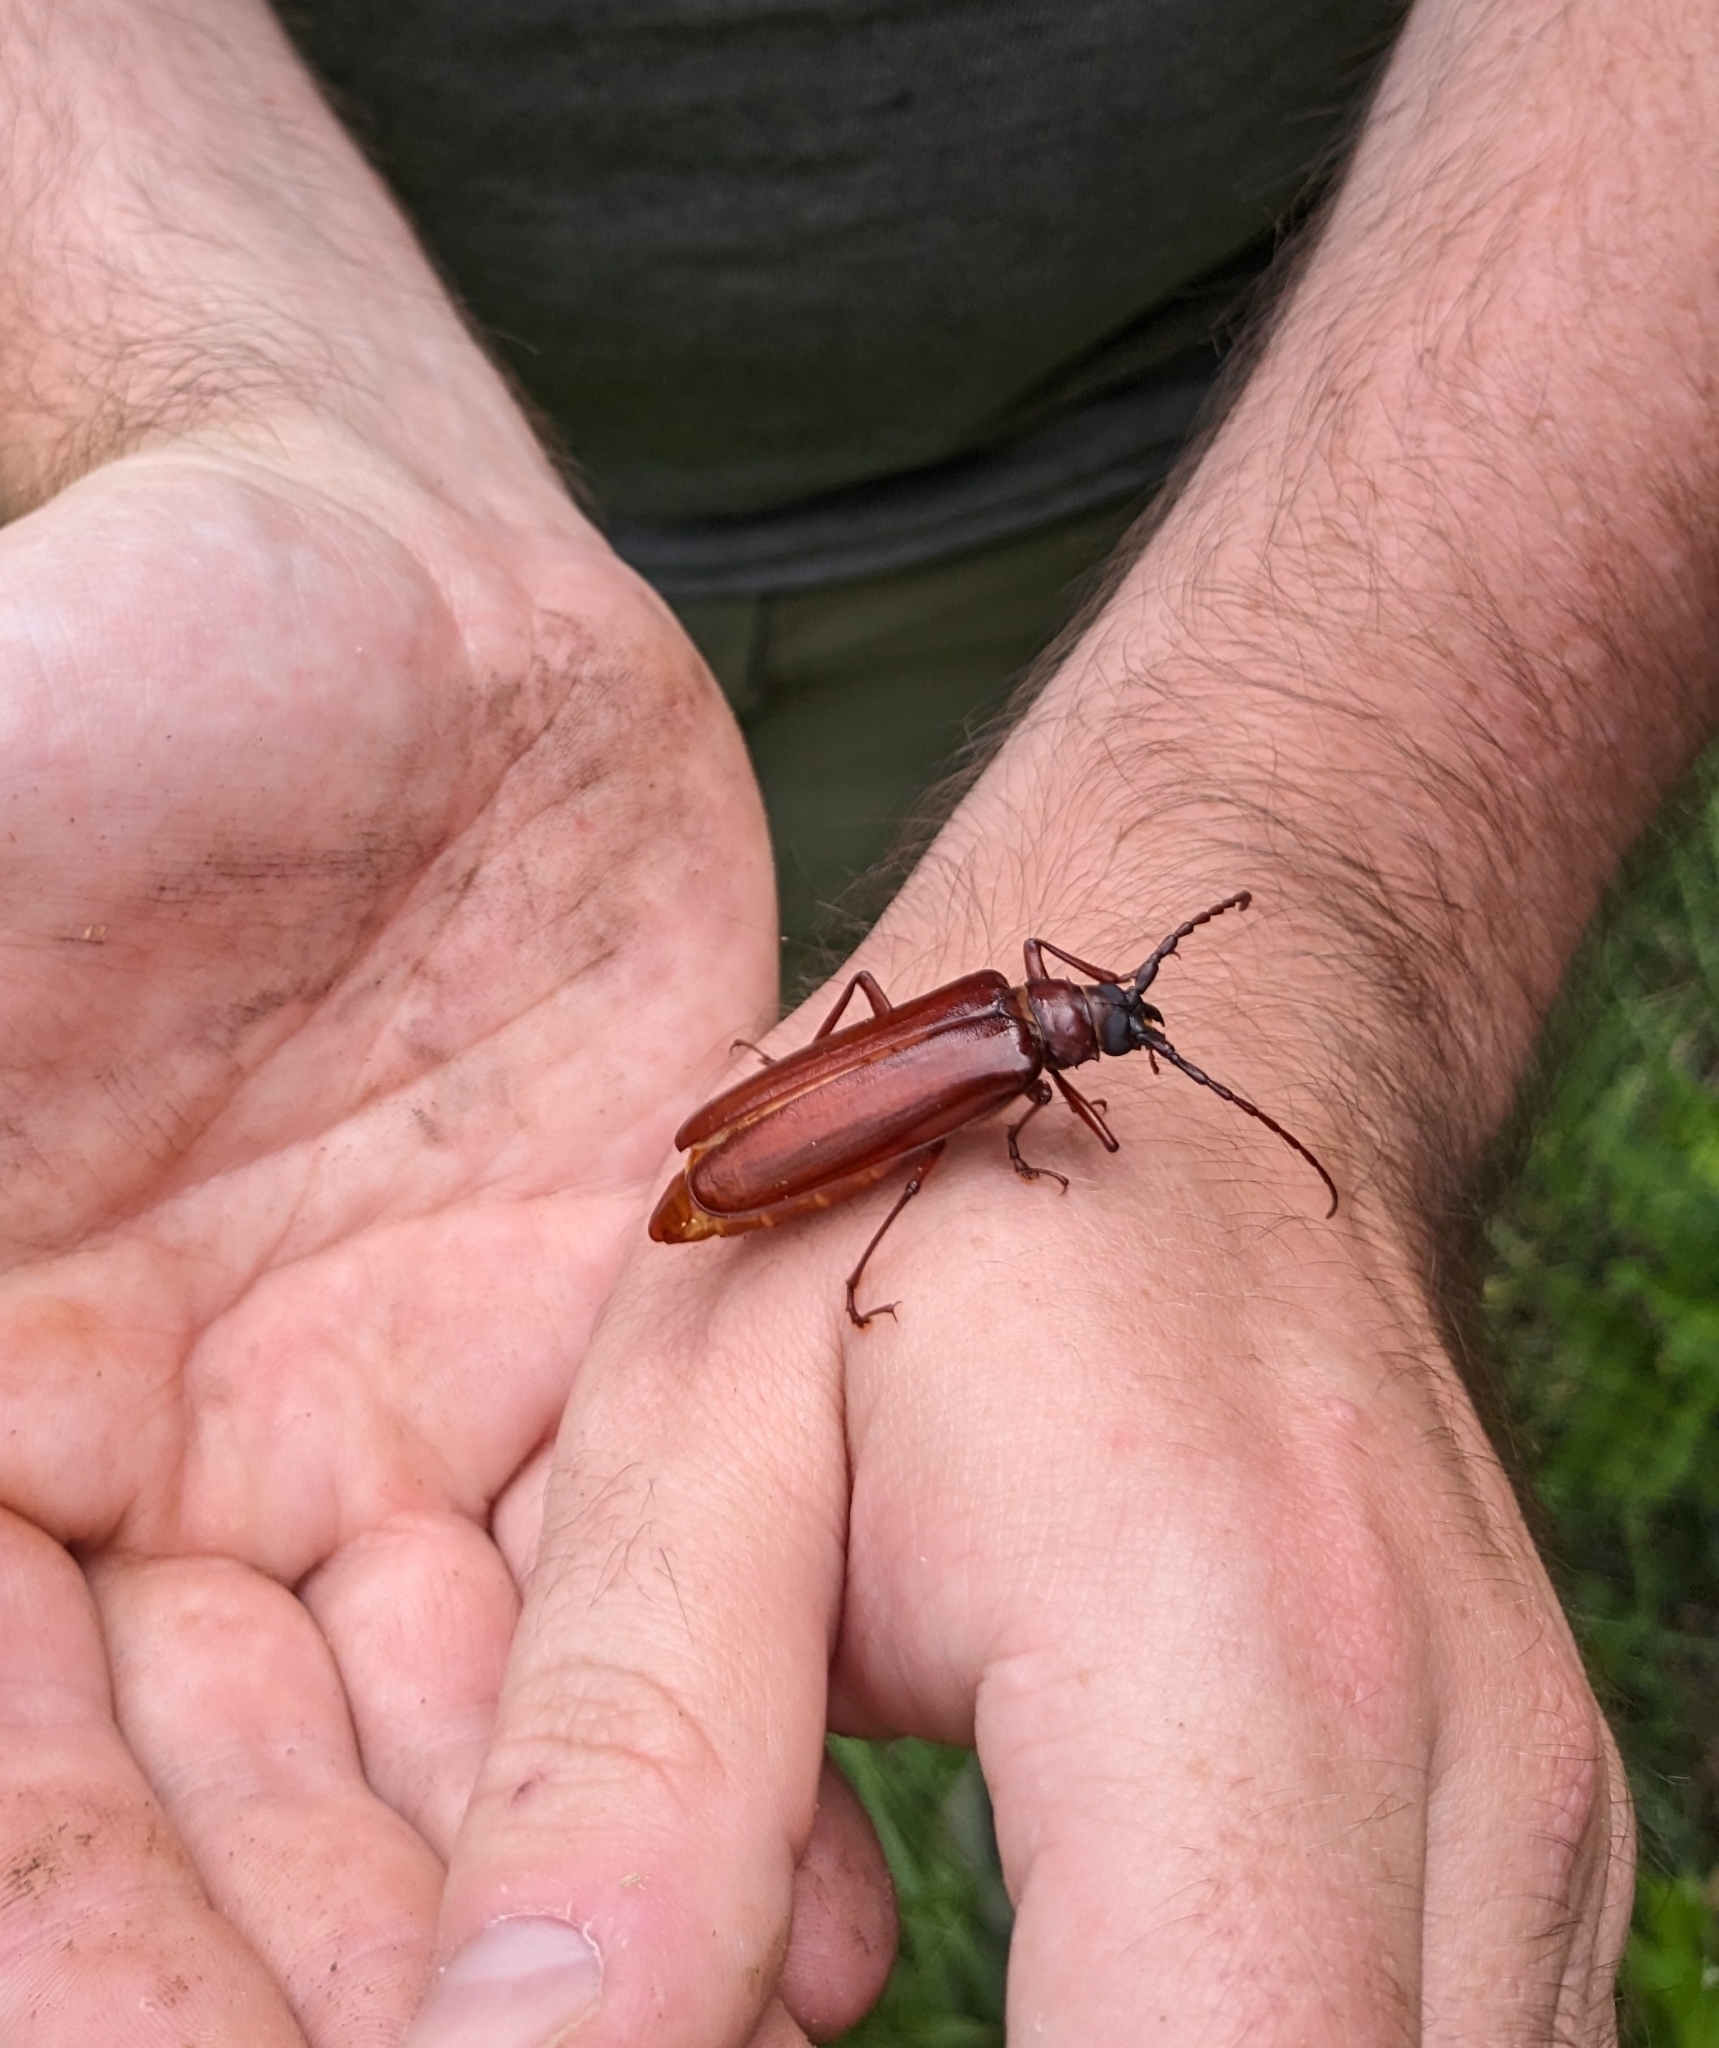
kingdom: Animalia
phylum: Arthropoda
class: Insecta
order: Coleoptera
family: Cerambycidae
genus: Orthosoma
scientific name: Orthosoma brunneum
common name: Brown prionid beetle
